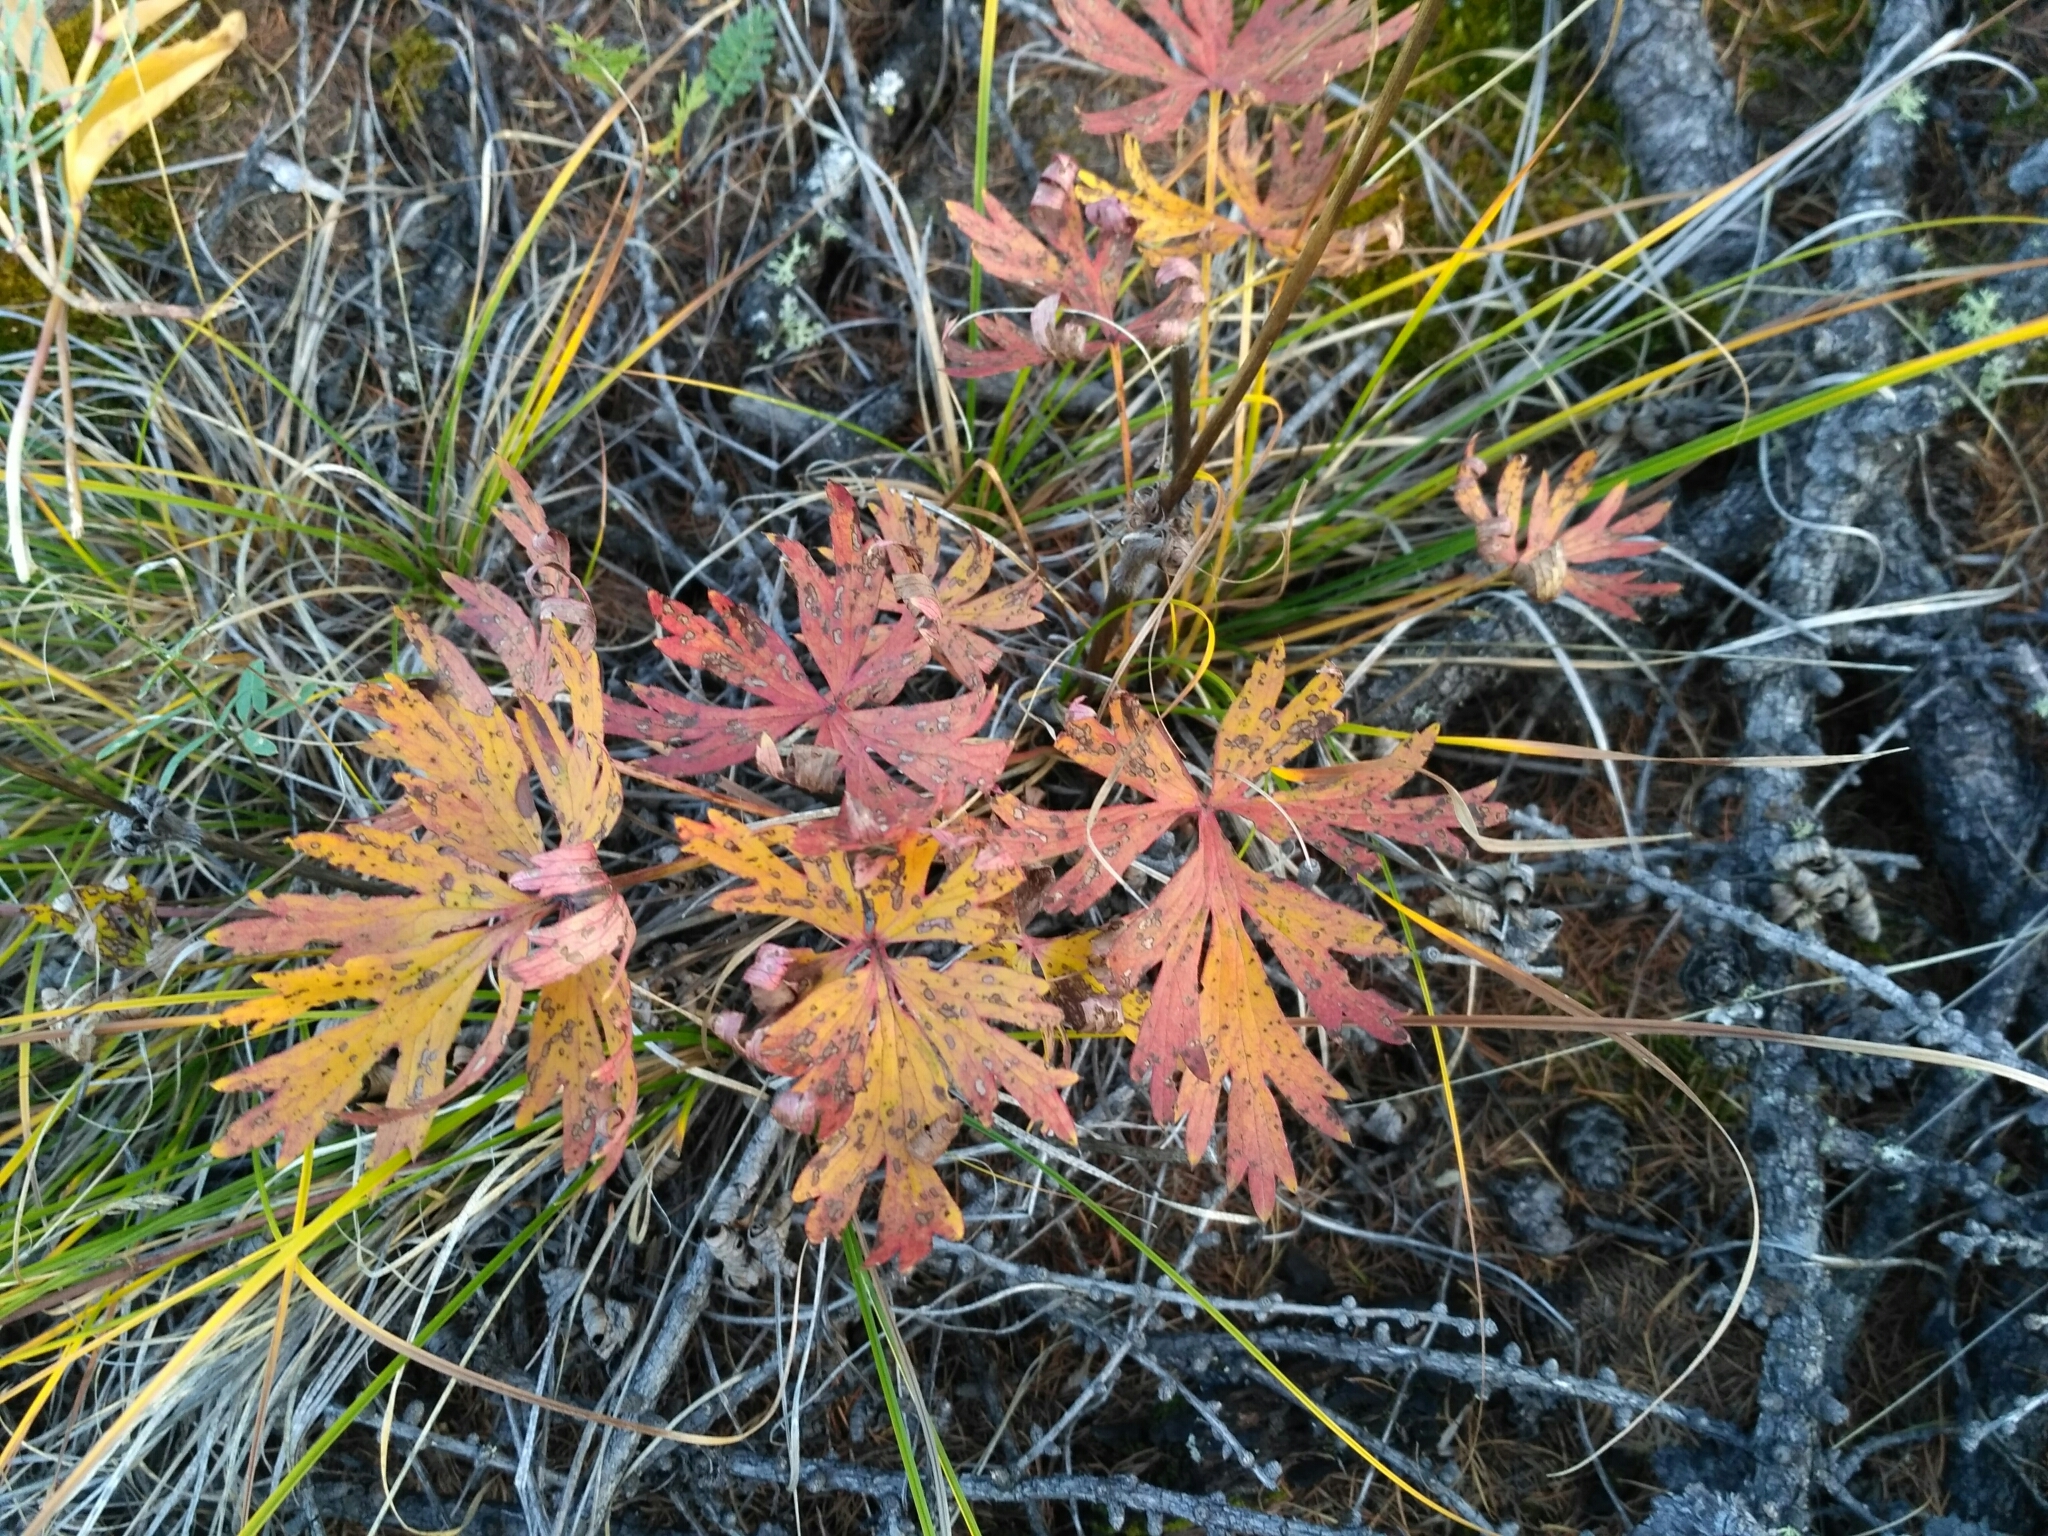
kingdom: Plantae
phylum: Tracheophyta
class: Magnoliopsida
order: Ranunculales
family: Ranunculaceae
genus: Pulsatilla
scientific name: Pulsatilla patens
